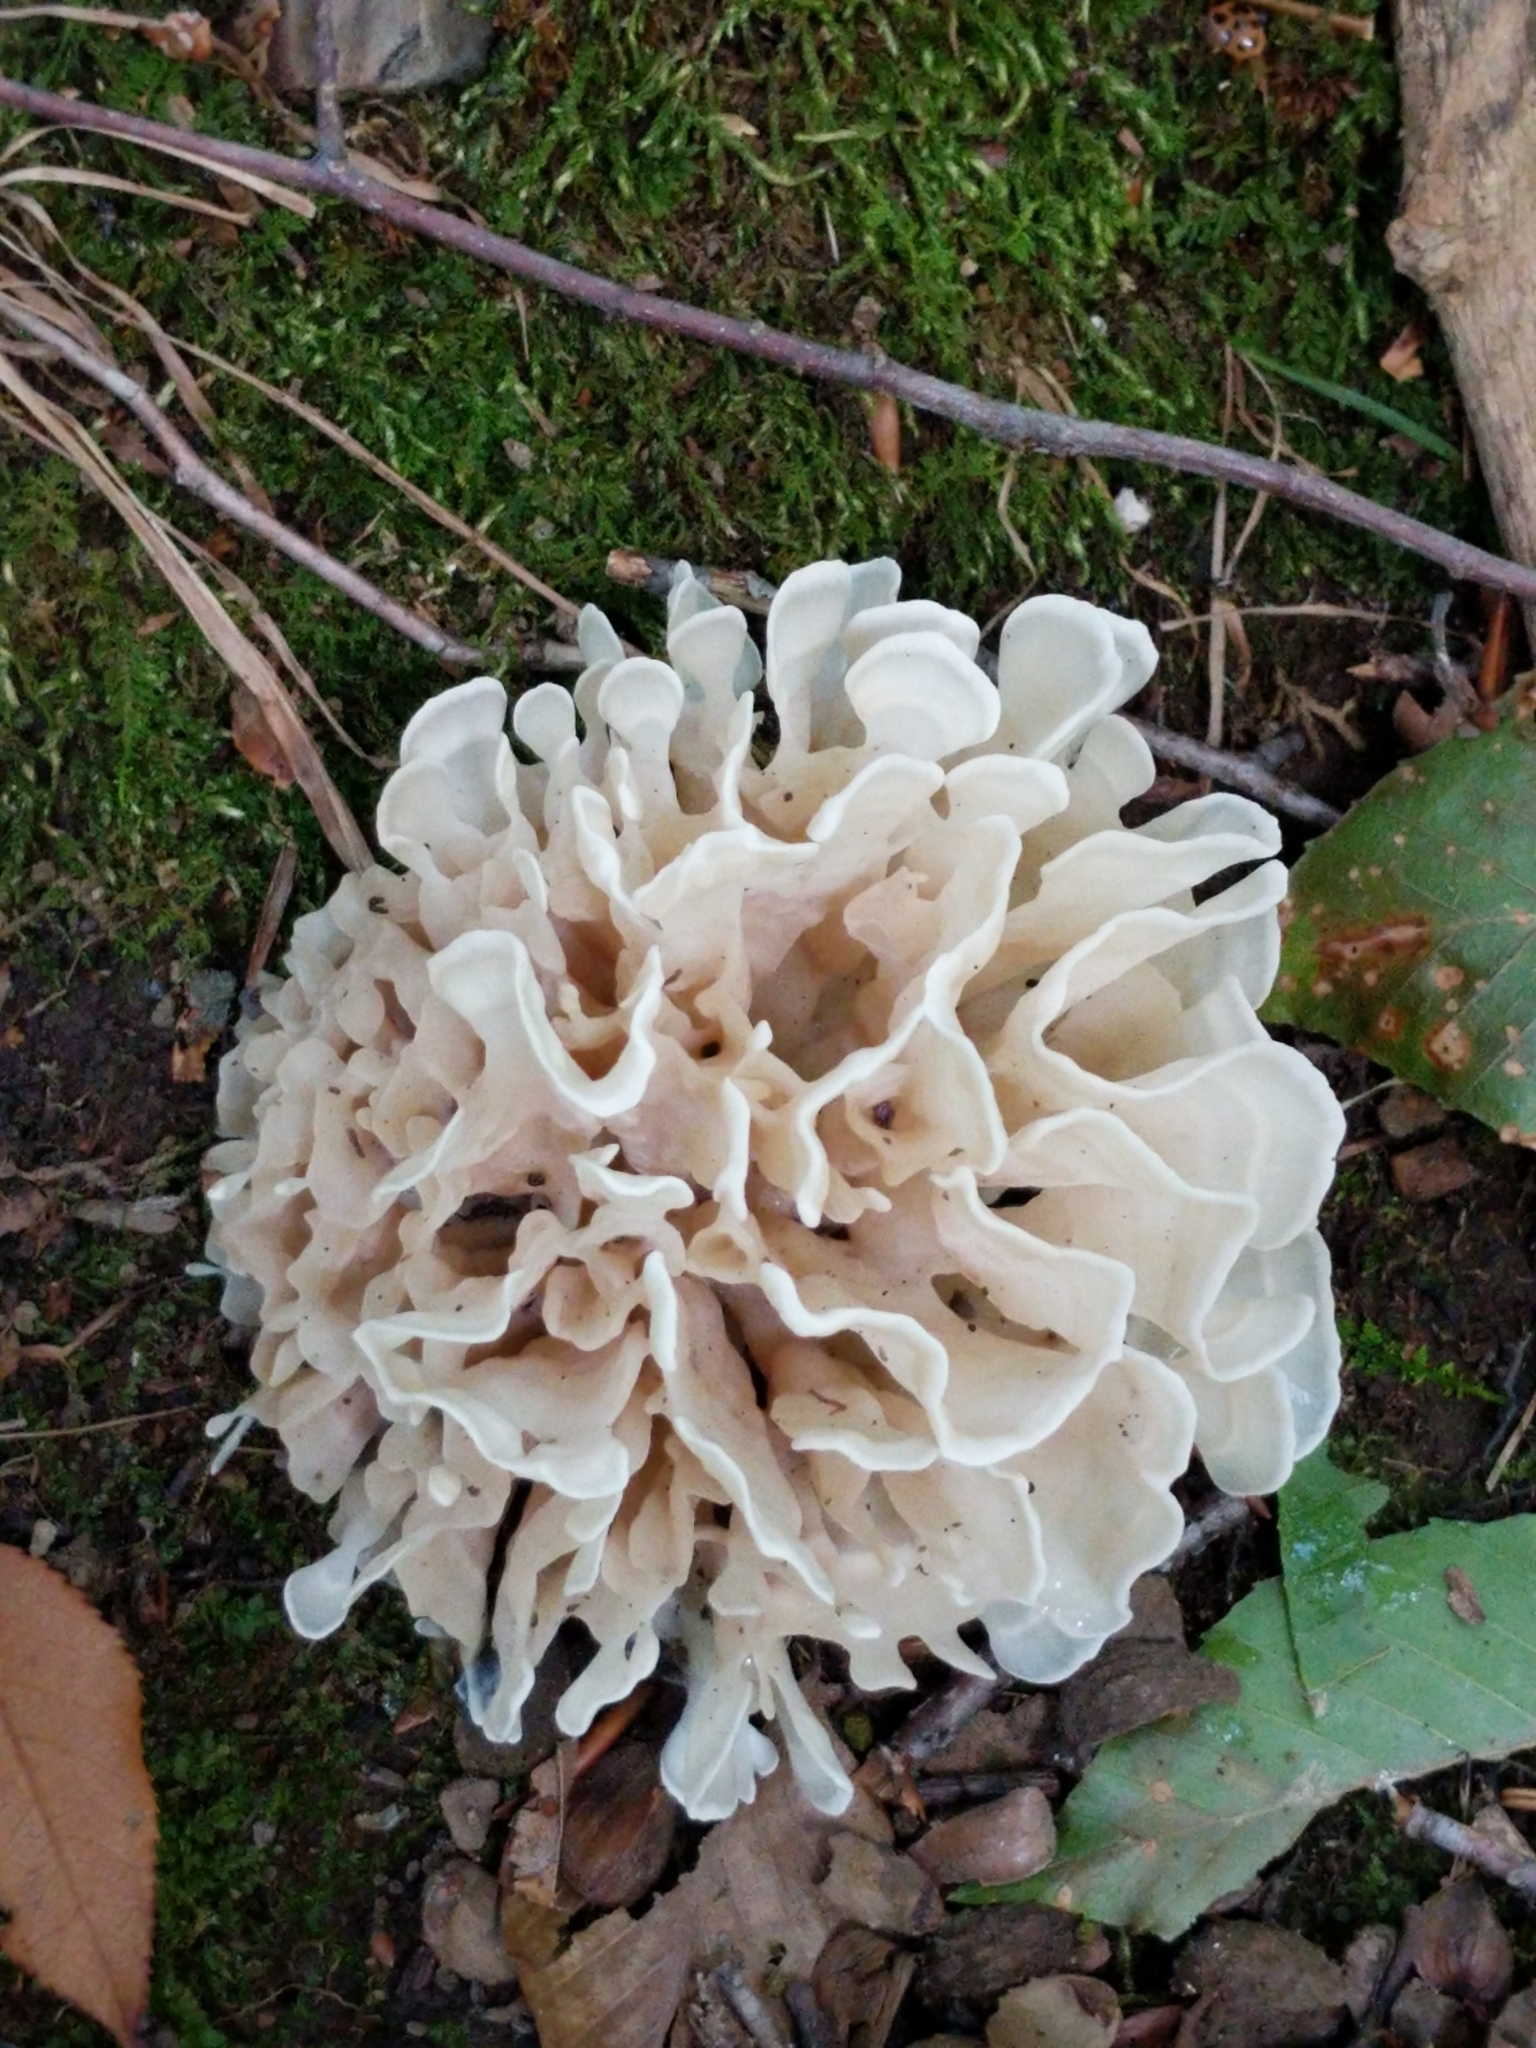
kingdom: Fungi
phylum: Basidiomycota
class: Agaricomycetes
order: Polyporales
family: Sparassidaceae
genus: Sparassis
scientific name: Sparassis spathulata
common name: Eastern cauliflower mushroom
